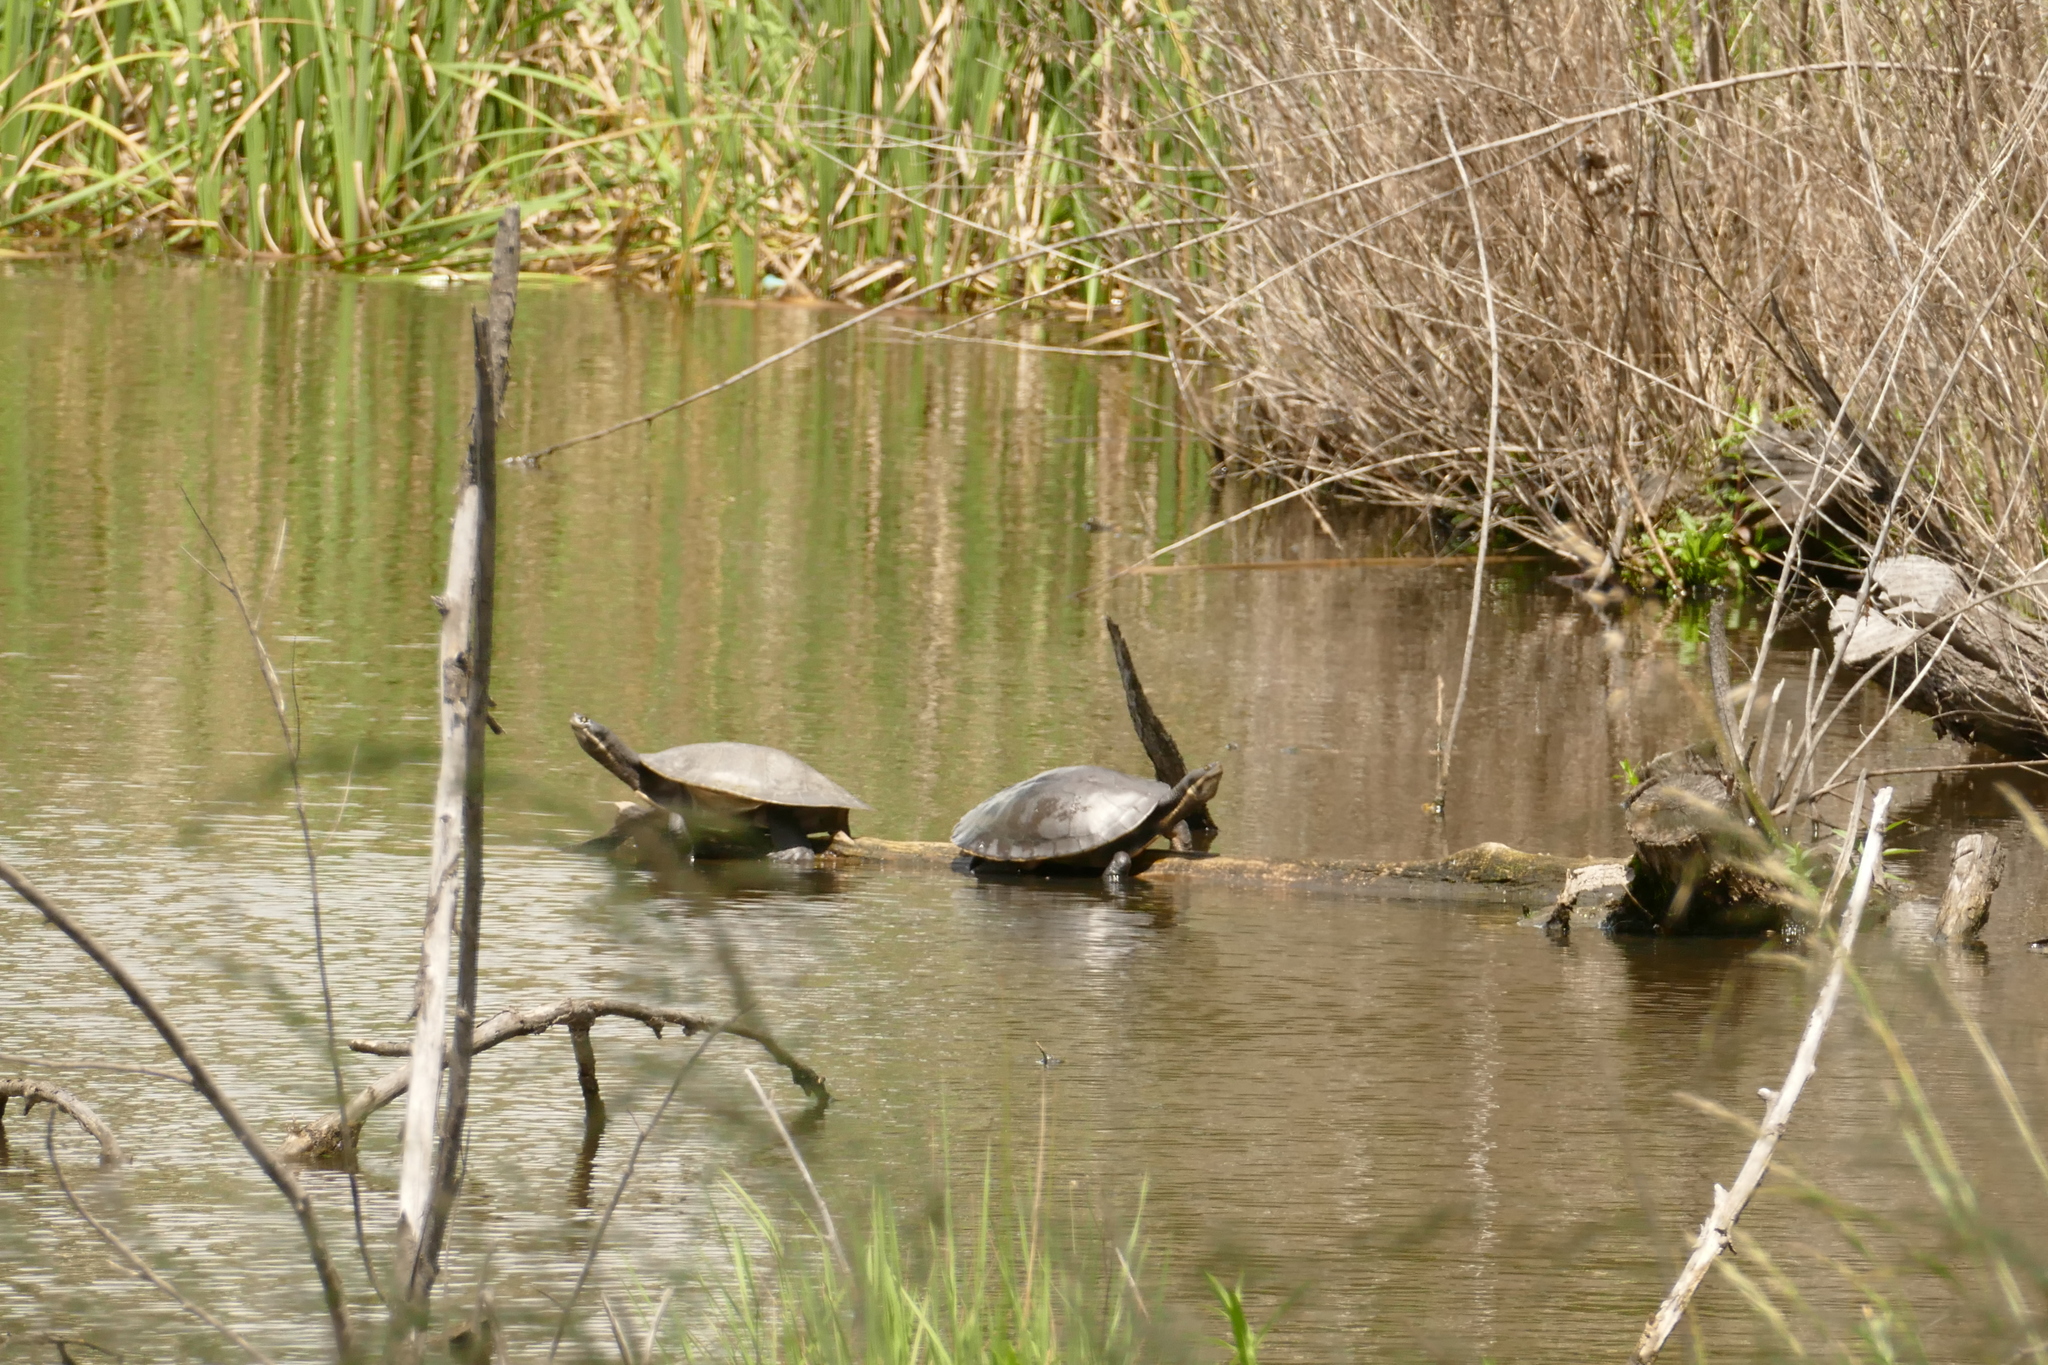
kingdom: Animalia
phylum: Chordata
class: Testudines
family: Chelidae
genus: Emydura
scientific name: Emydura macquarii
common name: Murray river turtle
